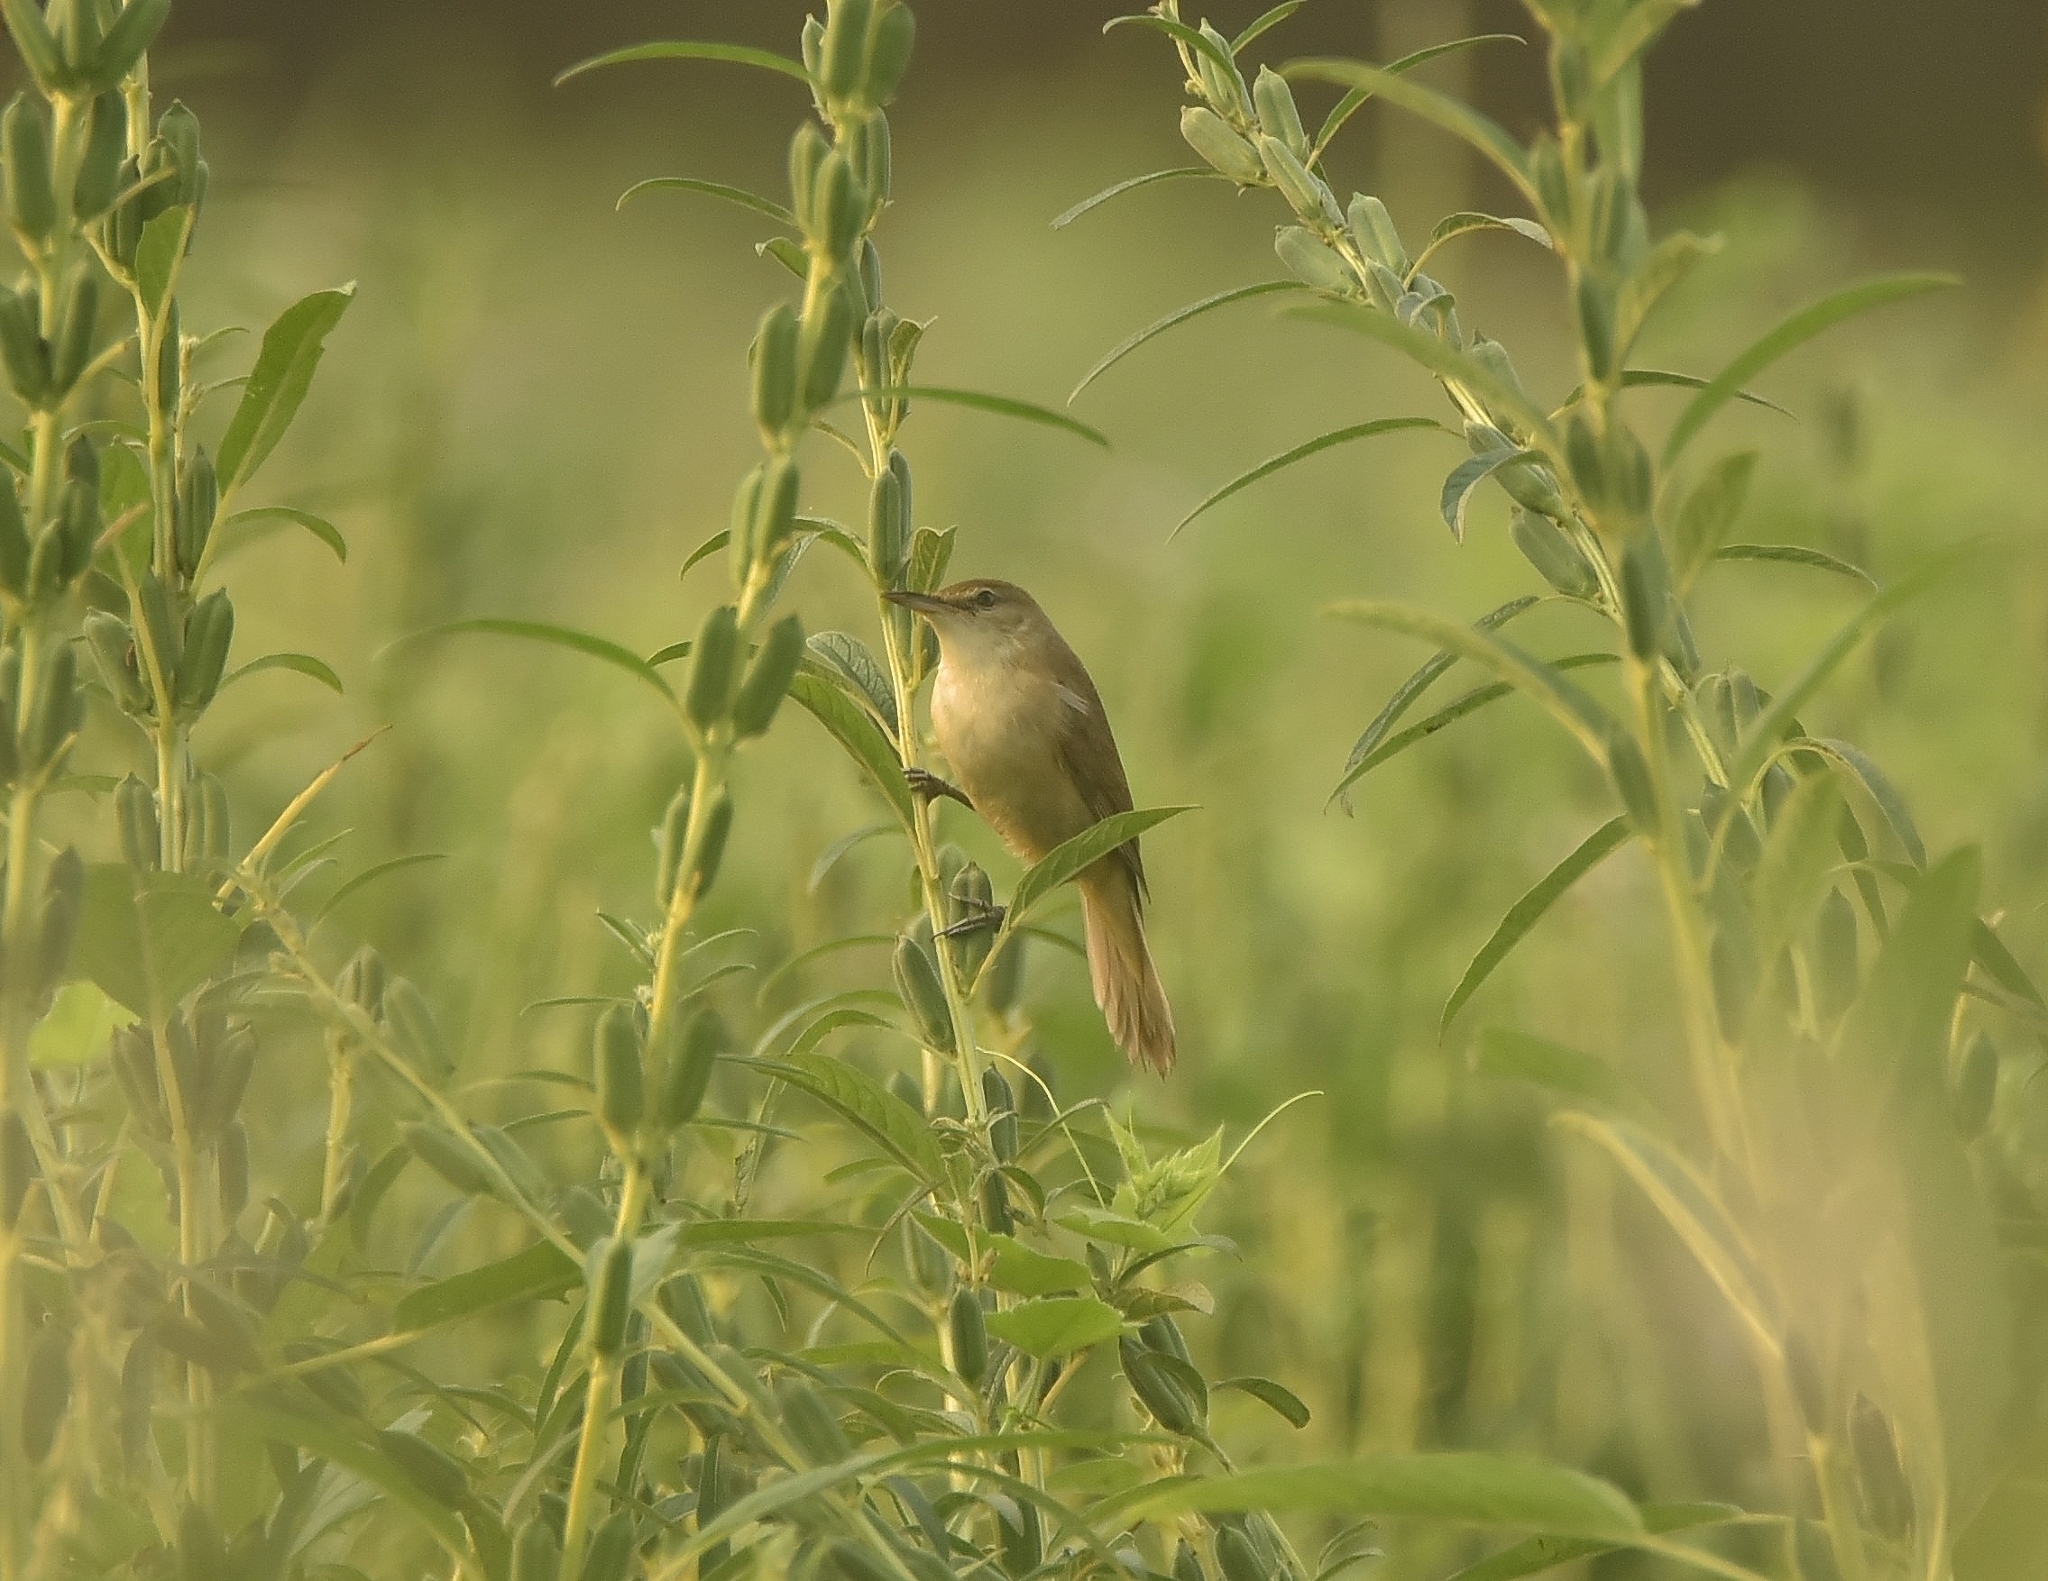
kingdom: Animalia
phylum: Chordata
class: Aves
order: Passeriformes
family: Acrocephalidae
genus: Acrocephalus
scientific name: Acrocephalus stentoreus
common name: Clamorous reed warbler
